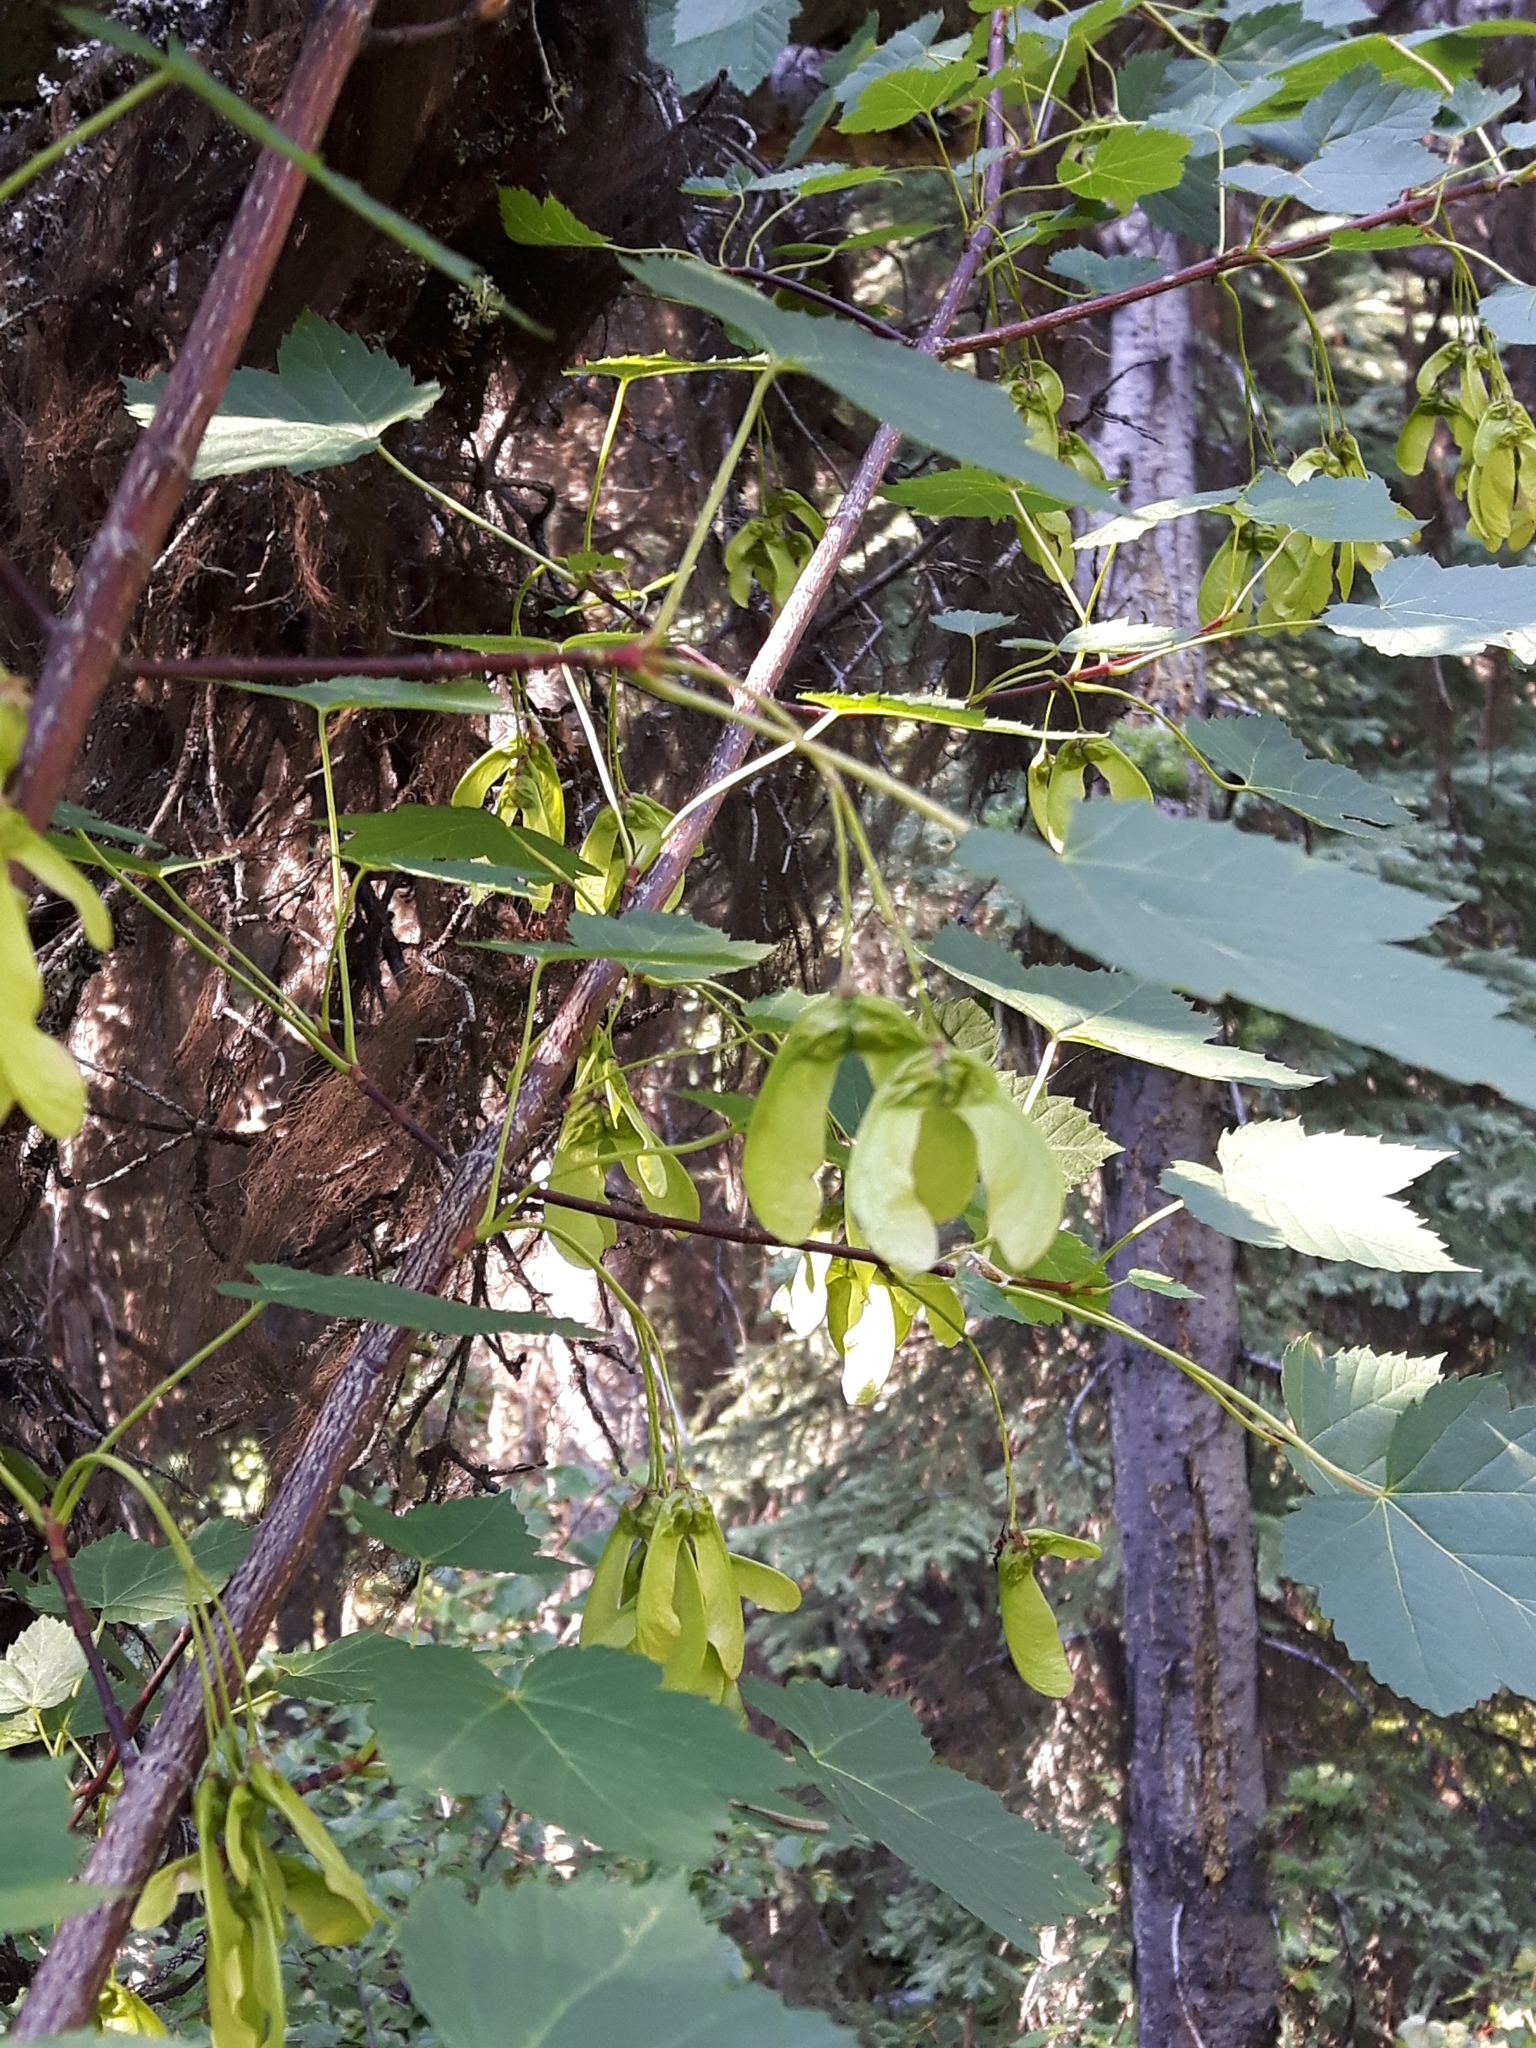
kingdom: Plantae
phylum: Tracheophyta
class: Magnoliopsida
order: Sapindales
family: Sapindaceae
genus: Acer
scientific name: Acer glabrum
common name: Rocky mountain maple
